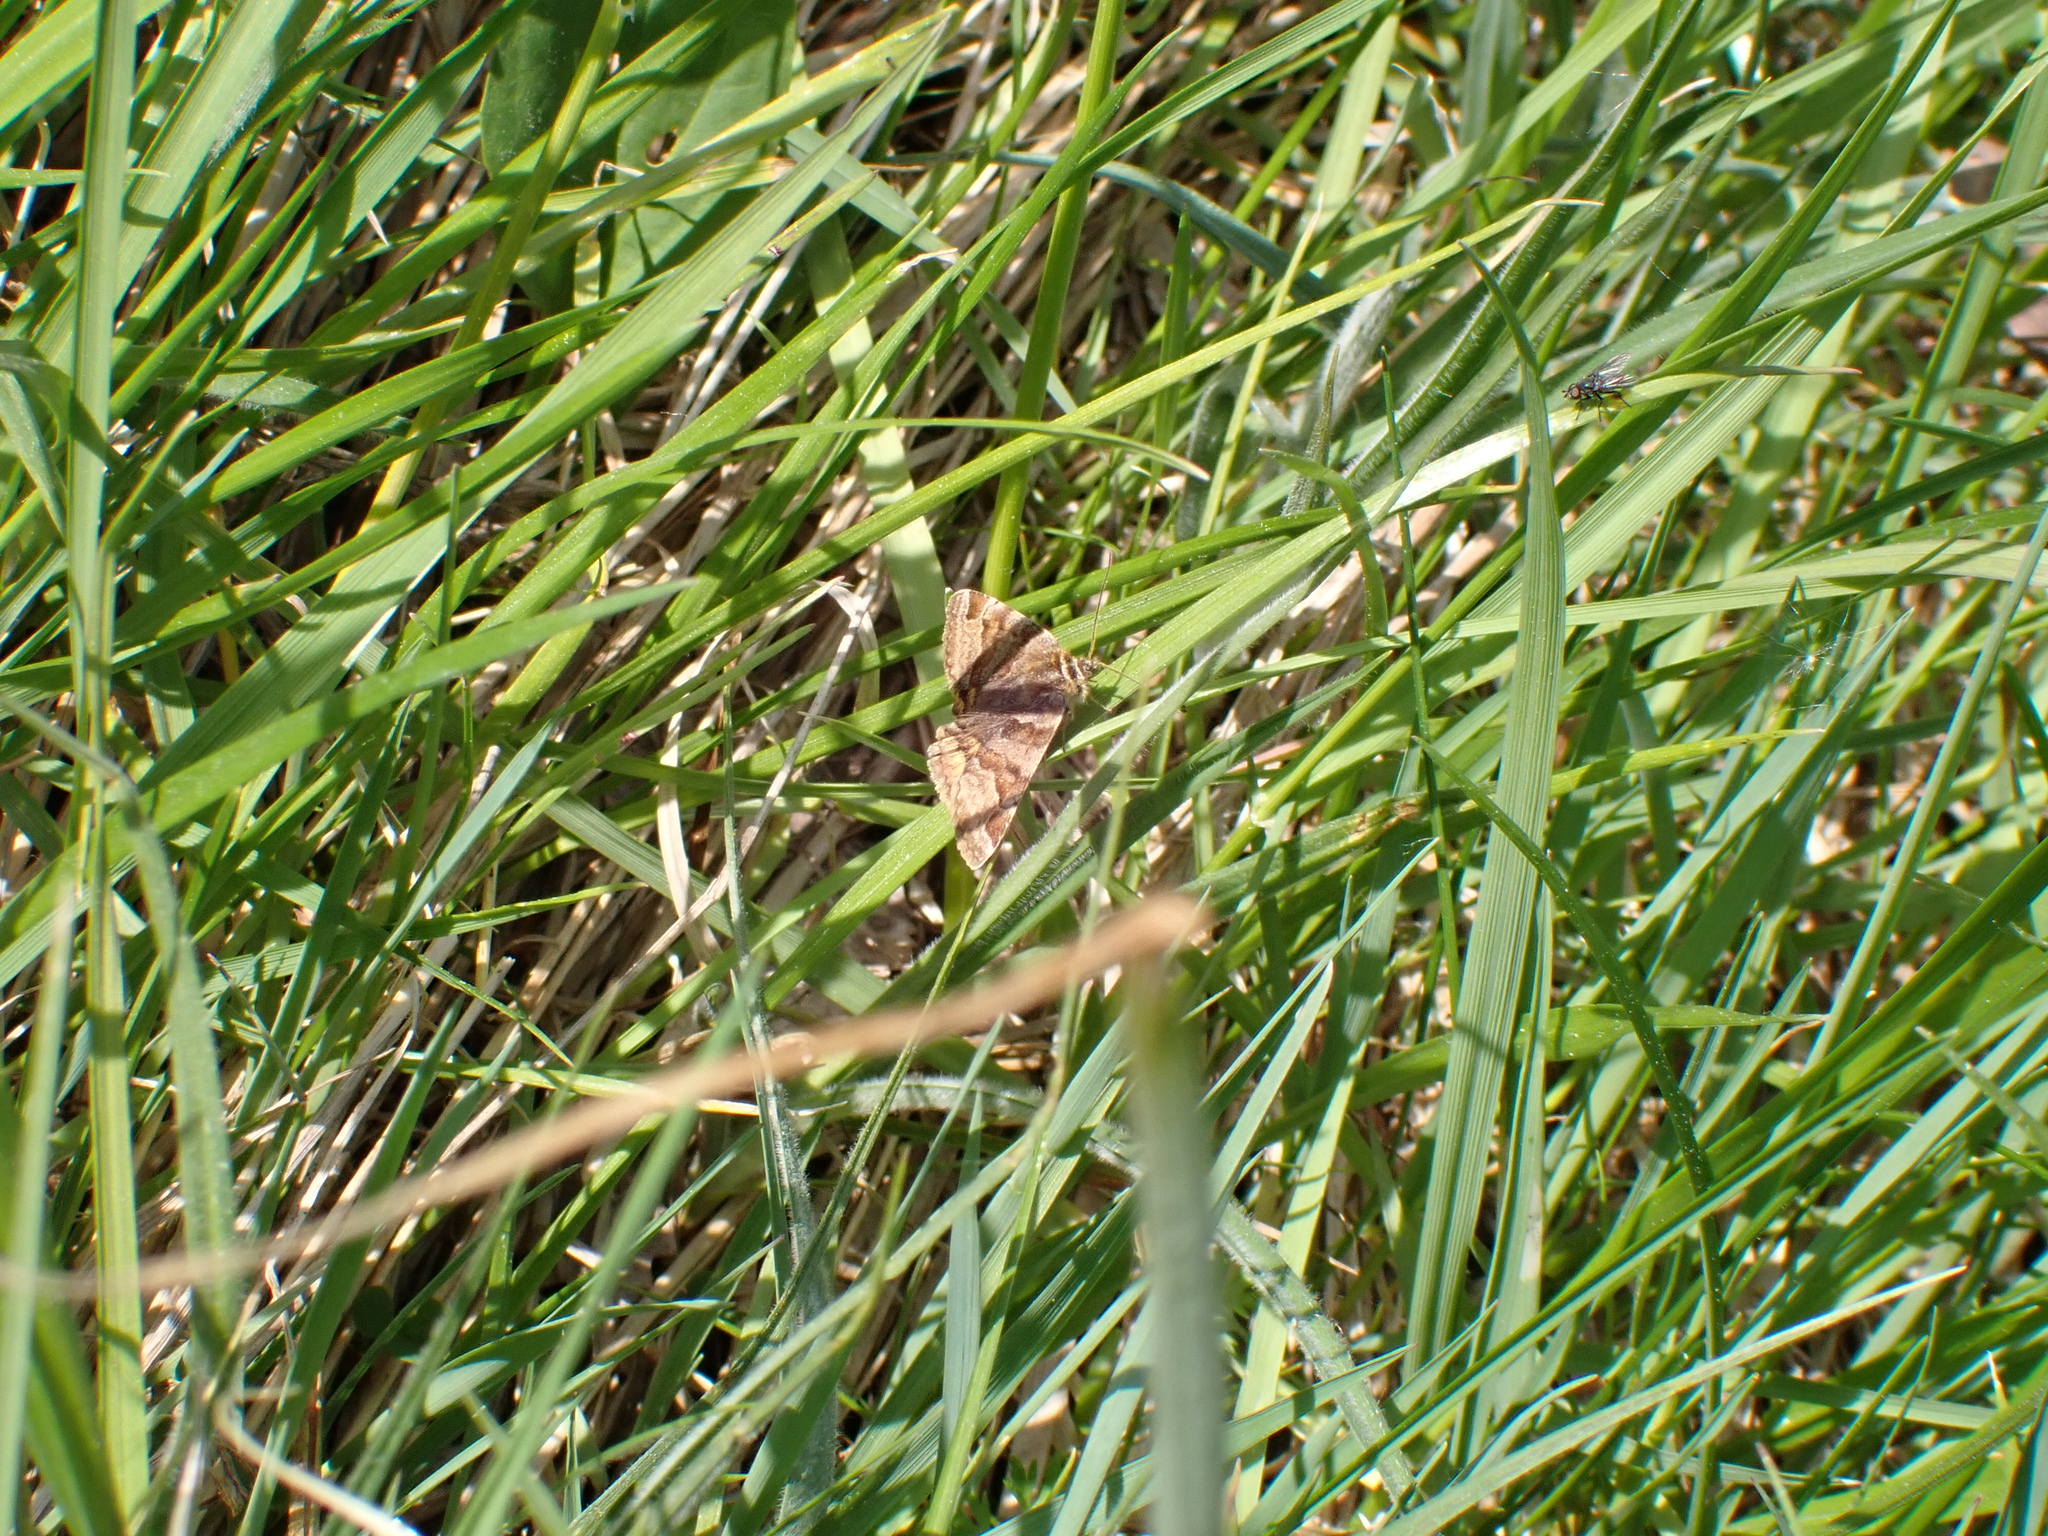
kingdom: Animalia
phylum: Arthropoda
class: Insecta
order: Lepidoptera
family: Erebidae
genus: Euclidia
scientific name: Euclidia glyphica
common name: Burnet companion
